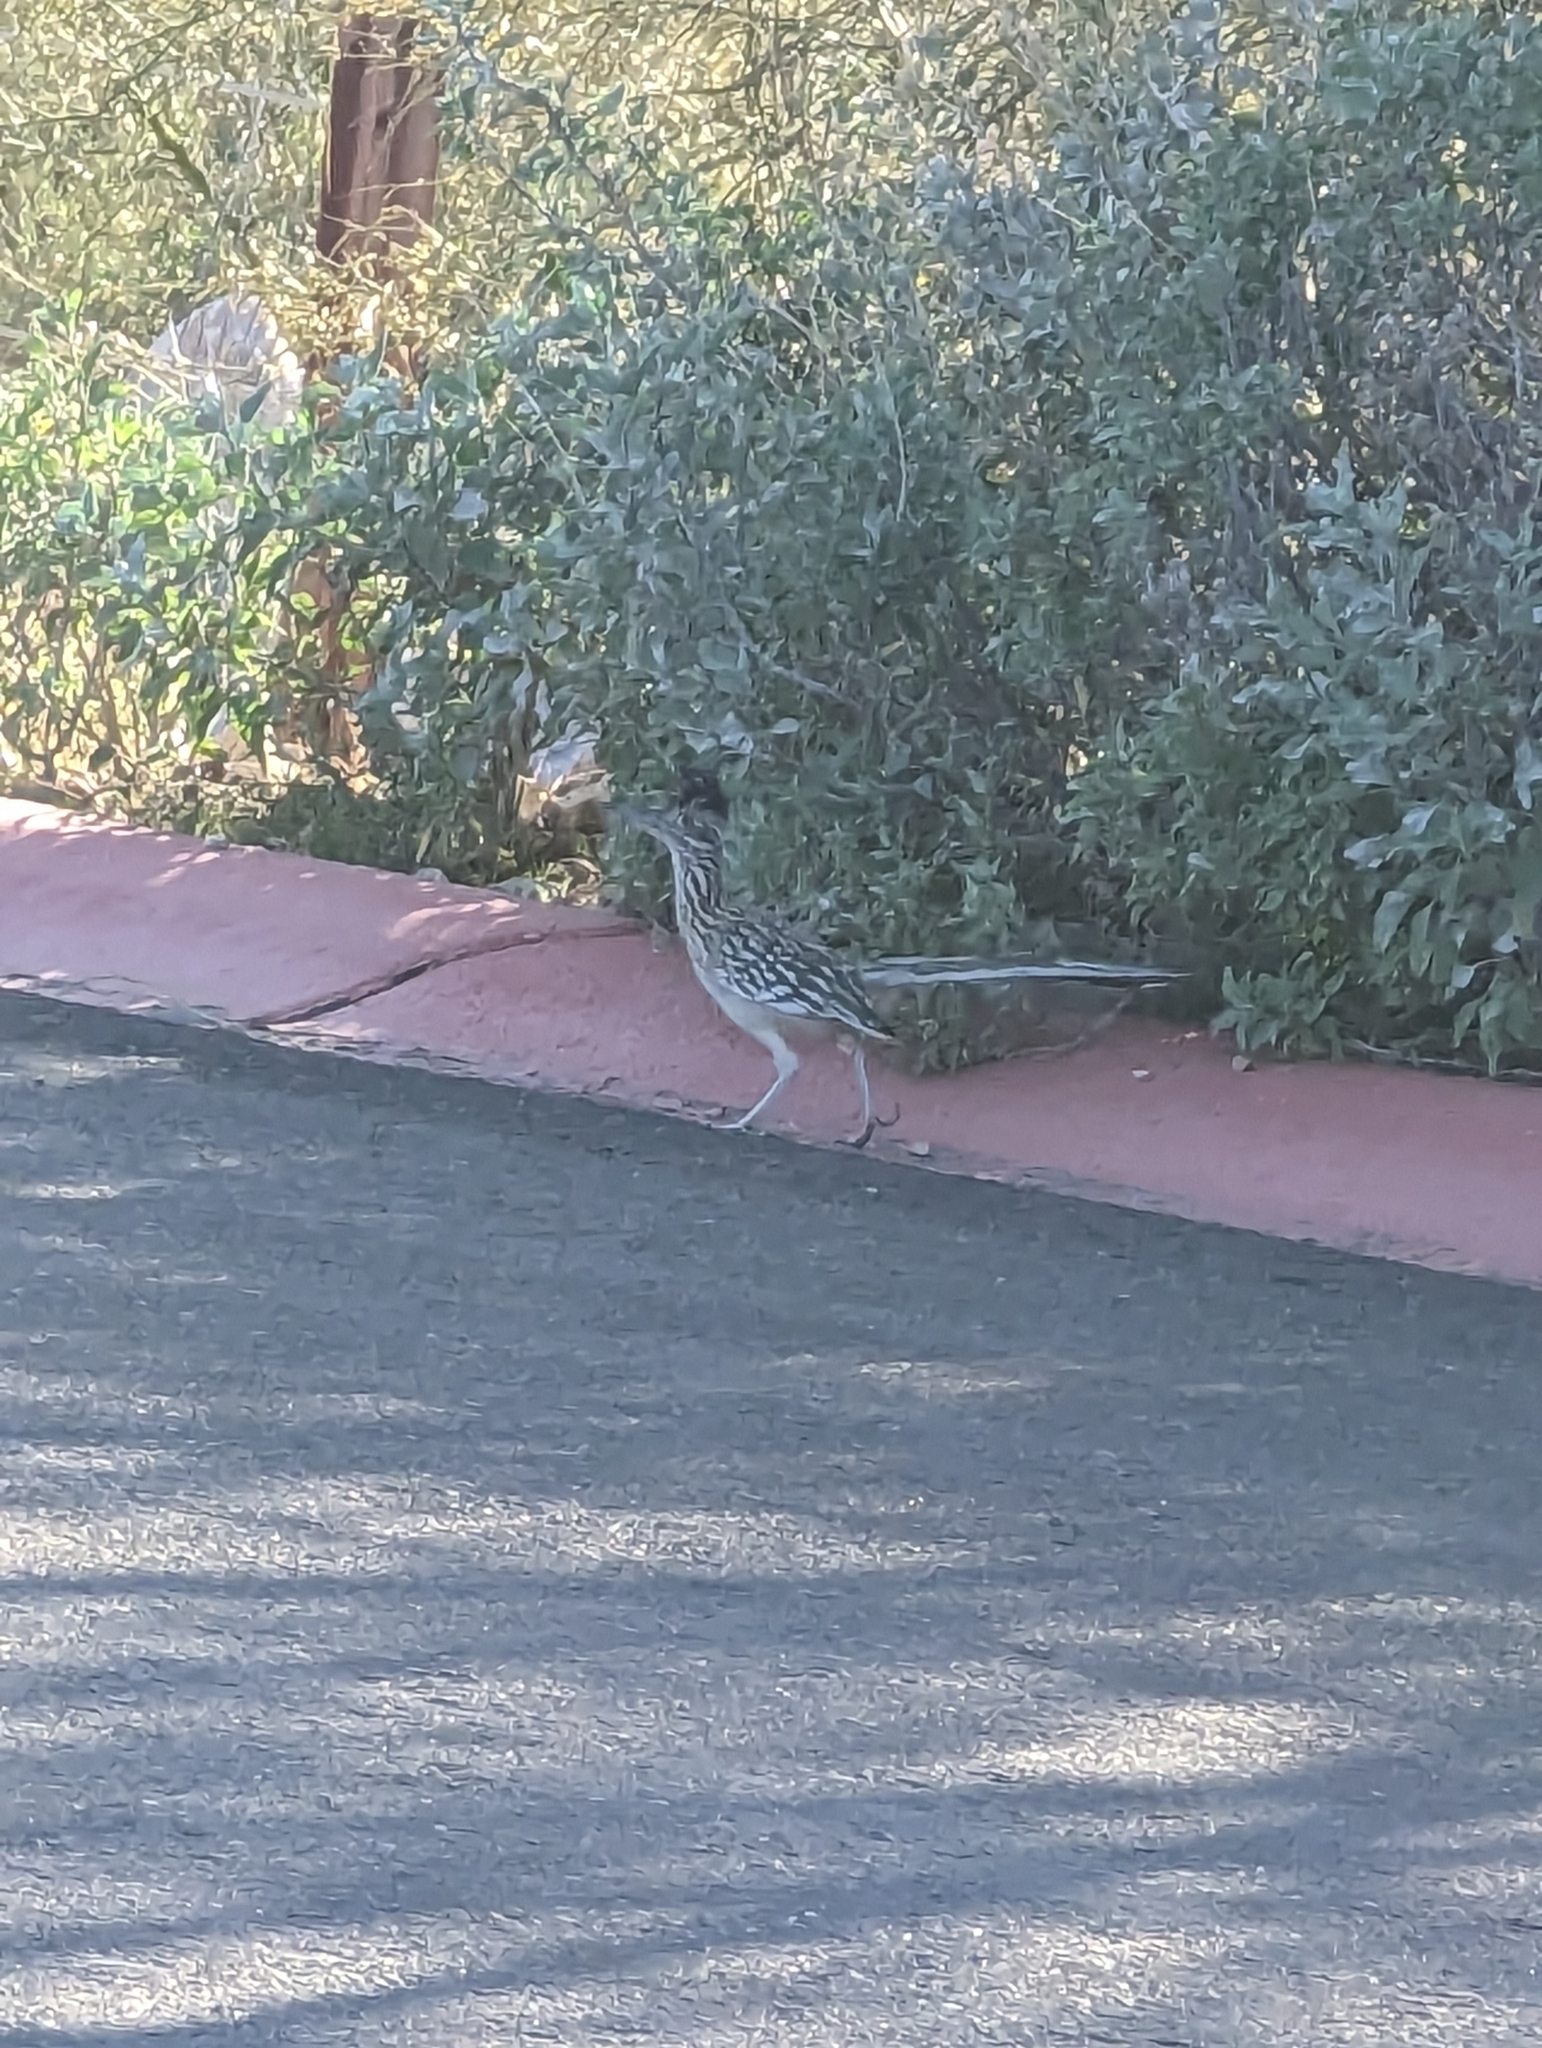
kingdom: Animalia
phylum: Chordata
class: Aves
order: Cuculiformes
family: Cuculidae
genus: Geococcyx
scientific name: Geococcyx californianus
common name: Greater roadrunner
